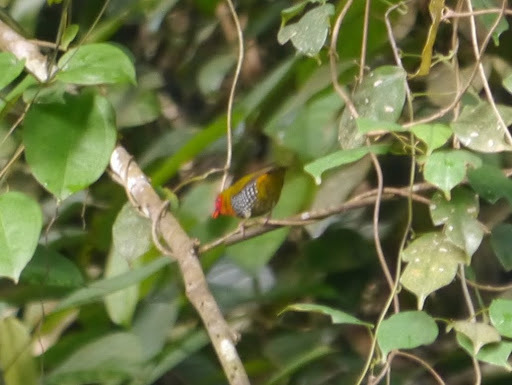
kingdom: Animalia
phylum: Chordata
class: Aves
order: Passeriformes
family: Estrildidae
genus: Mandingoa
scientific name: Mandingoa nitidula
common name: Green twinspot
